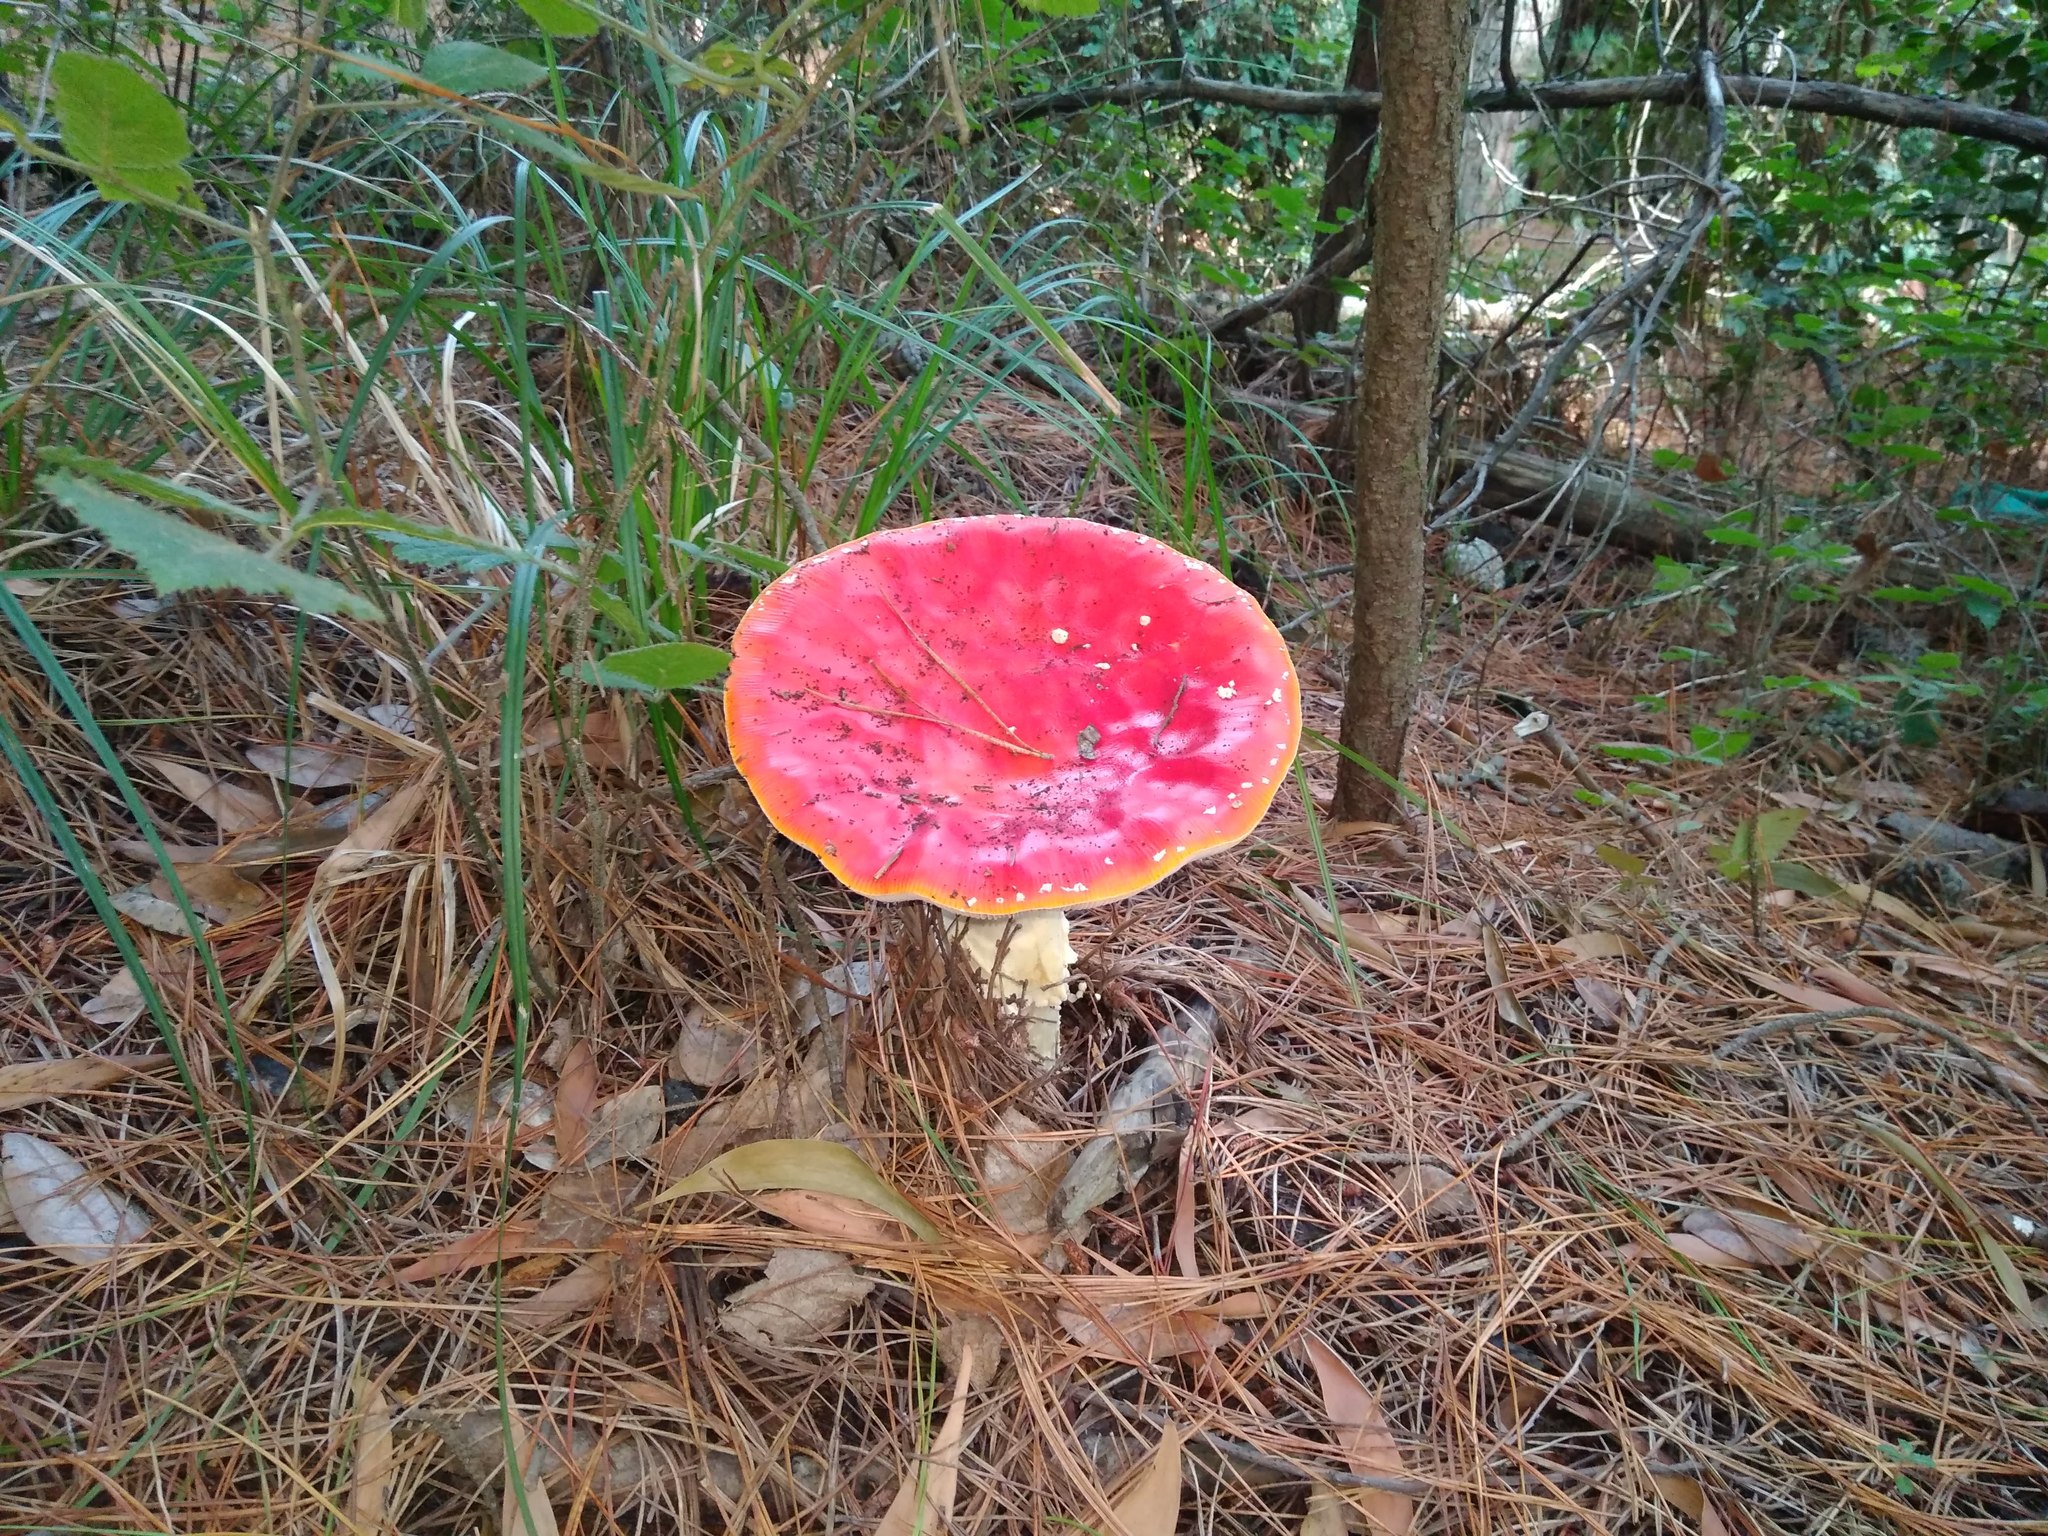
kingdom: Fungi
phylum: Basidiomycota
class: Agaricomycetes
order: Agaricales
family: Amanitaceae
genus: Amanita
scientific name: Amanita muscaria
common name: Fly agaric
